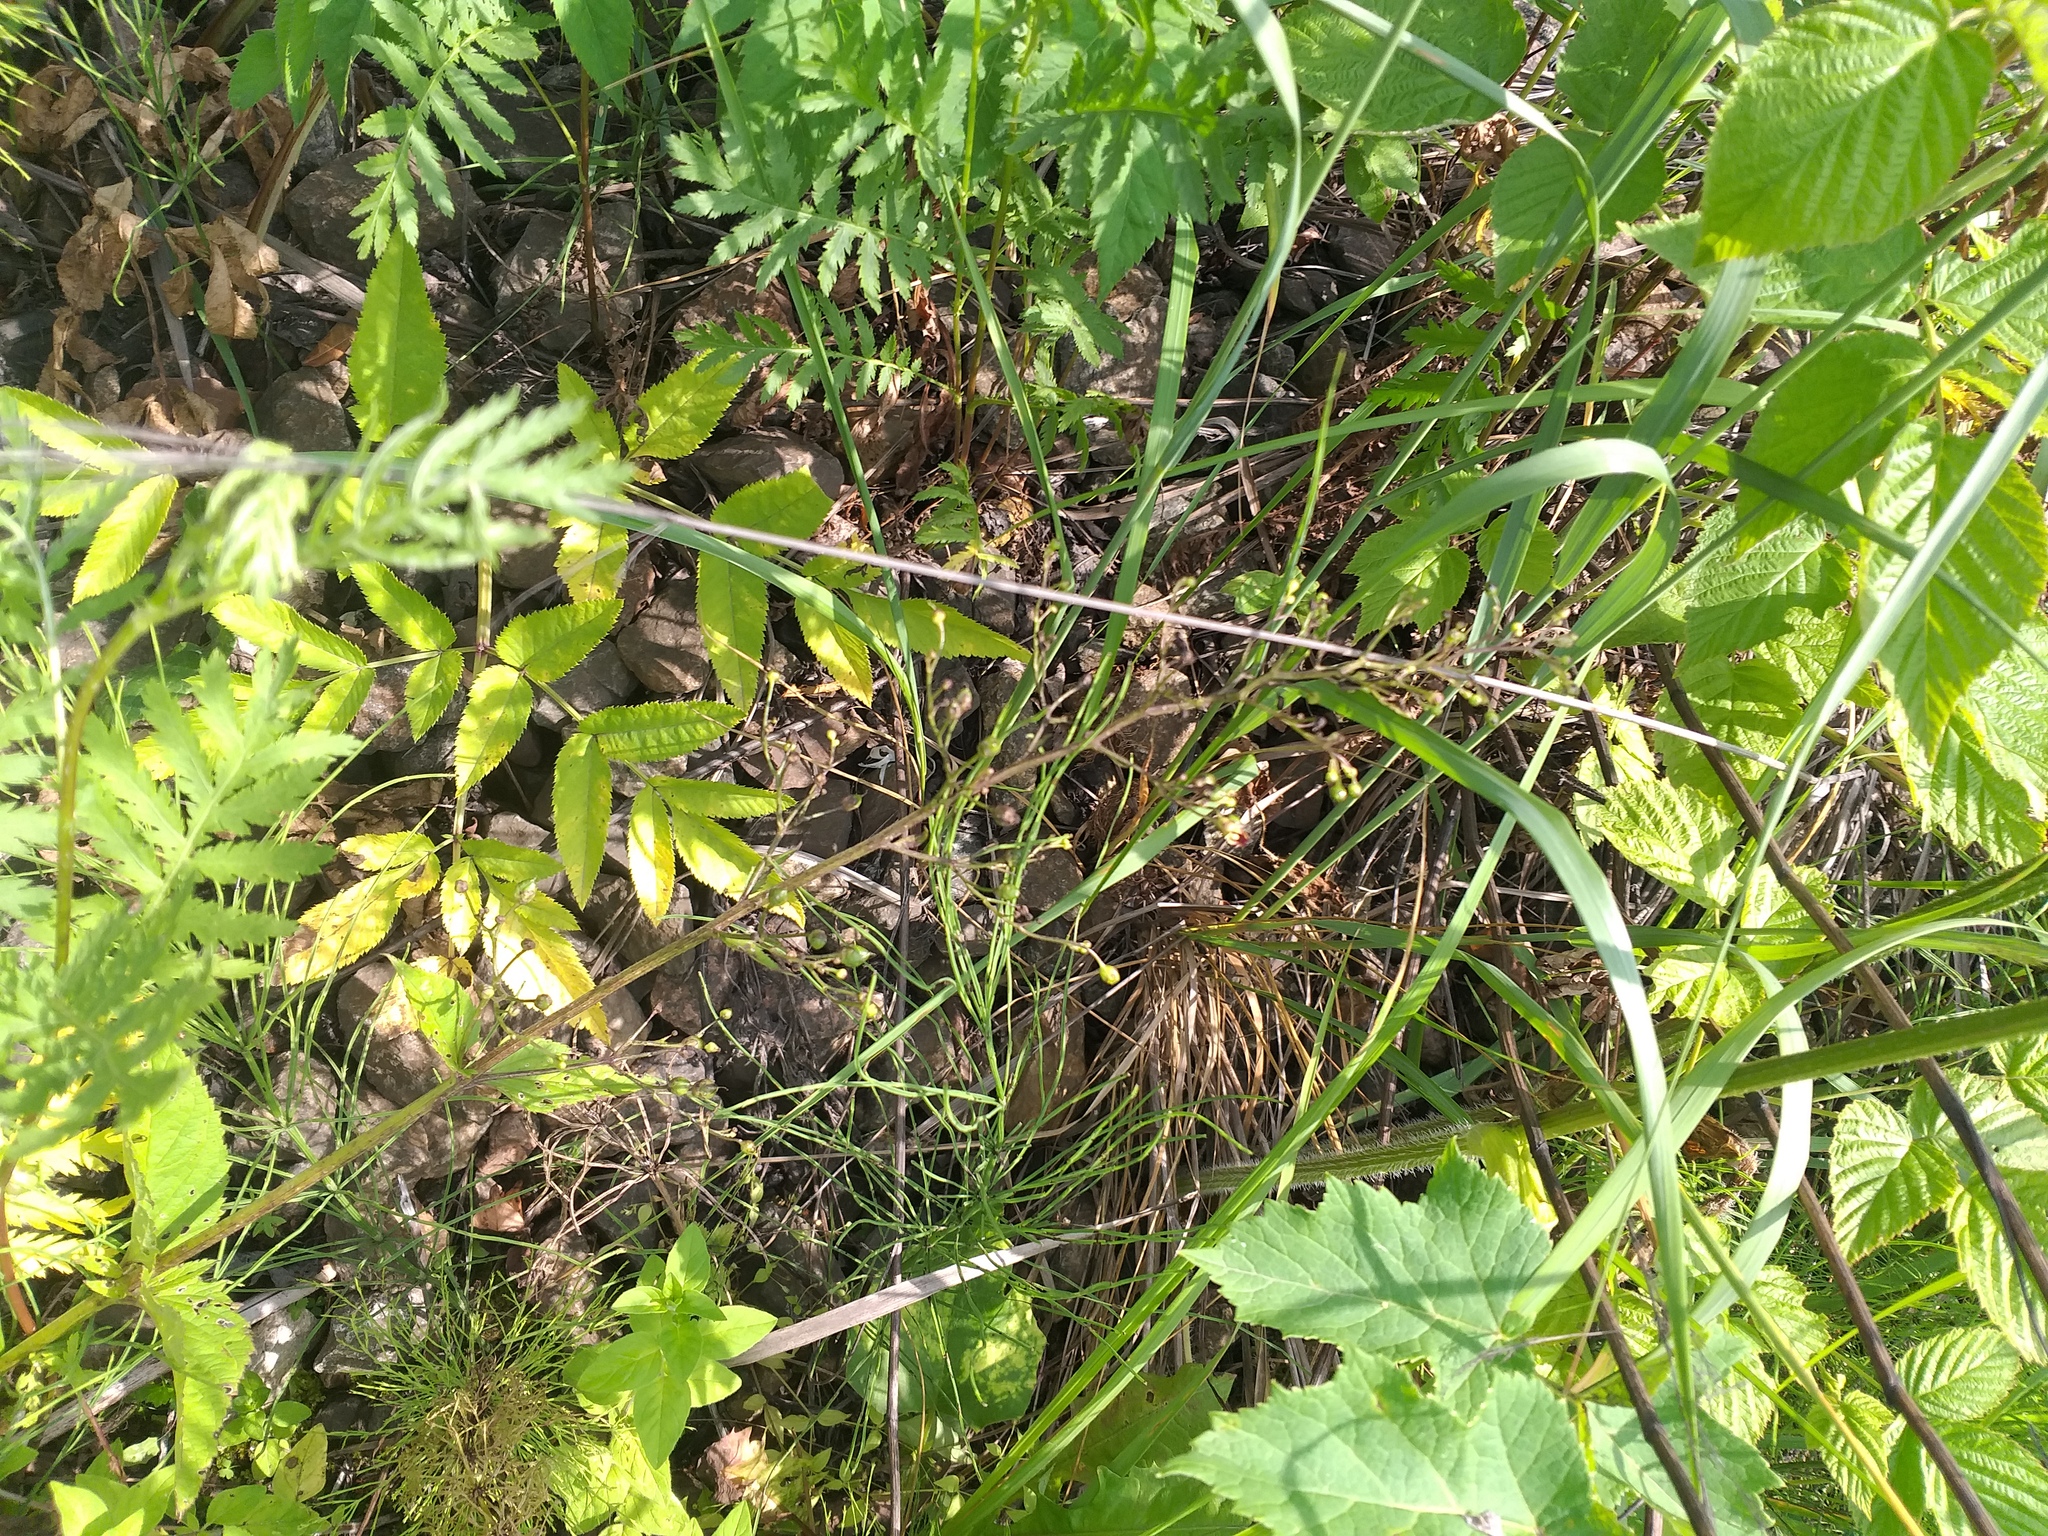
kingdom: Plantae
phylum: Tracheophyta
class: Magnoliopsida
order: Lamiales
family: Scrophulariaceae
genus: Scrophularia
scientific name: Scrophularia nodosa
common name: Common figwort
